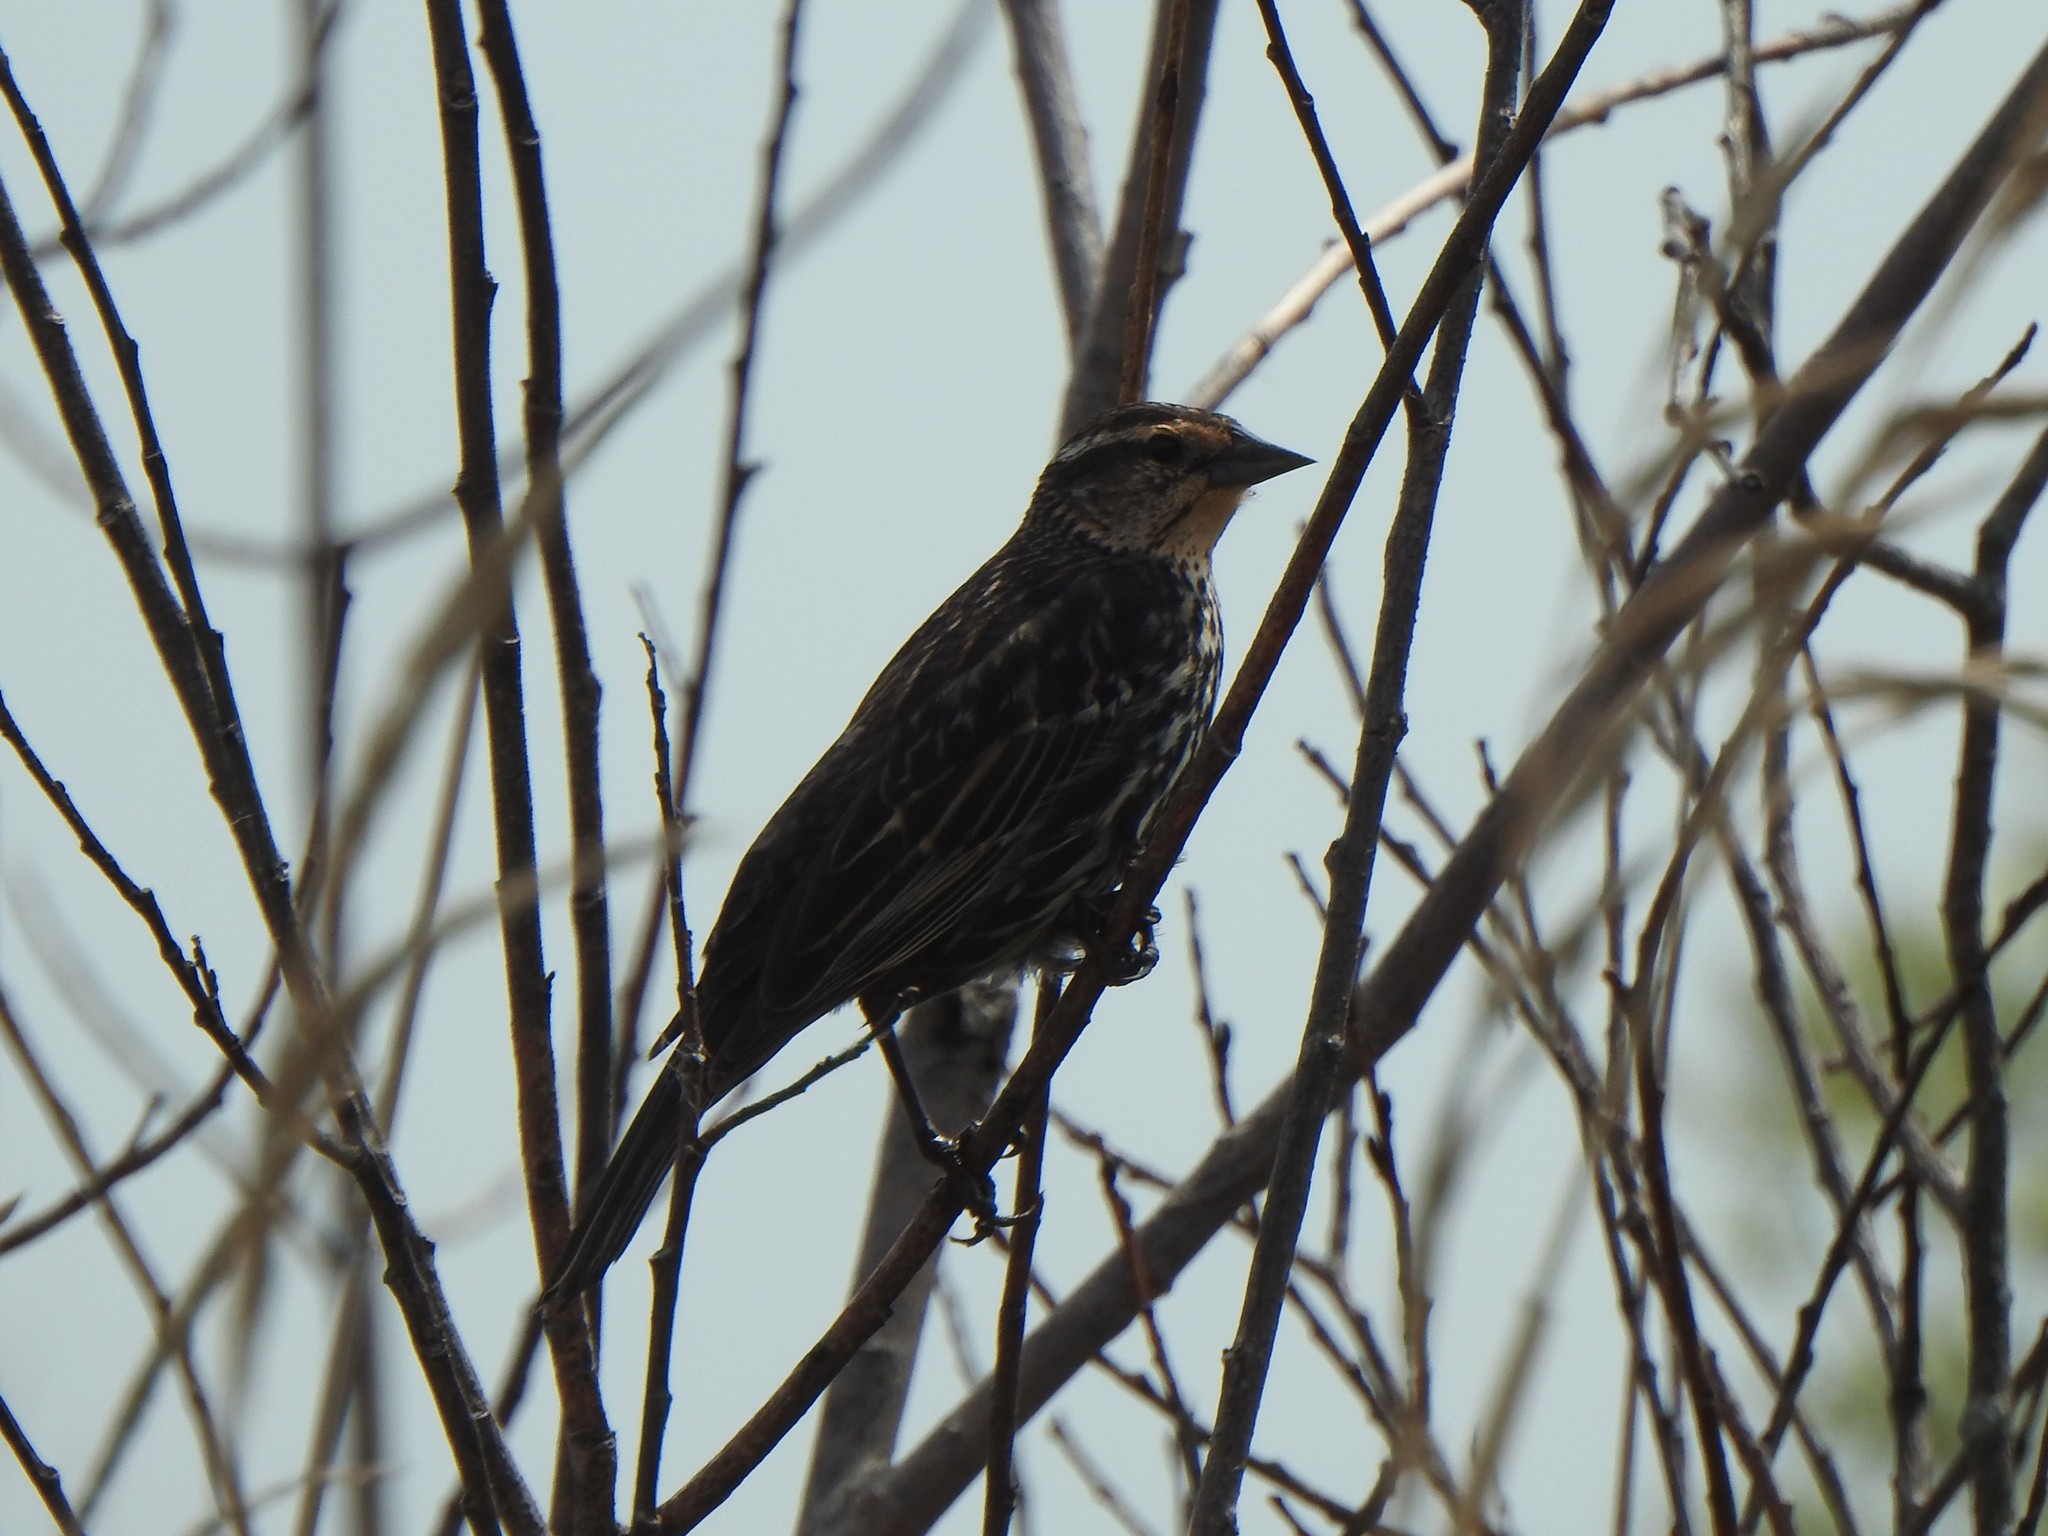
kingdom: Animalia
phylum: Chordata
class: Aves
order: Passeriformes
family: Icteridae
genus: Agelaius
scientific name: Agelaius phoeniceus
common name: Red-winged blackbird
